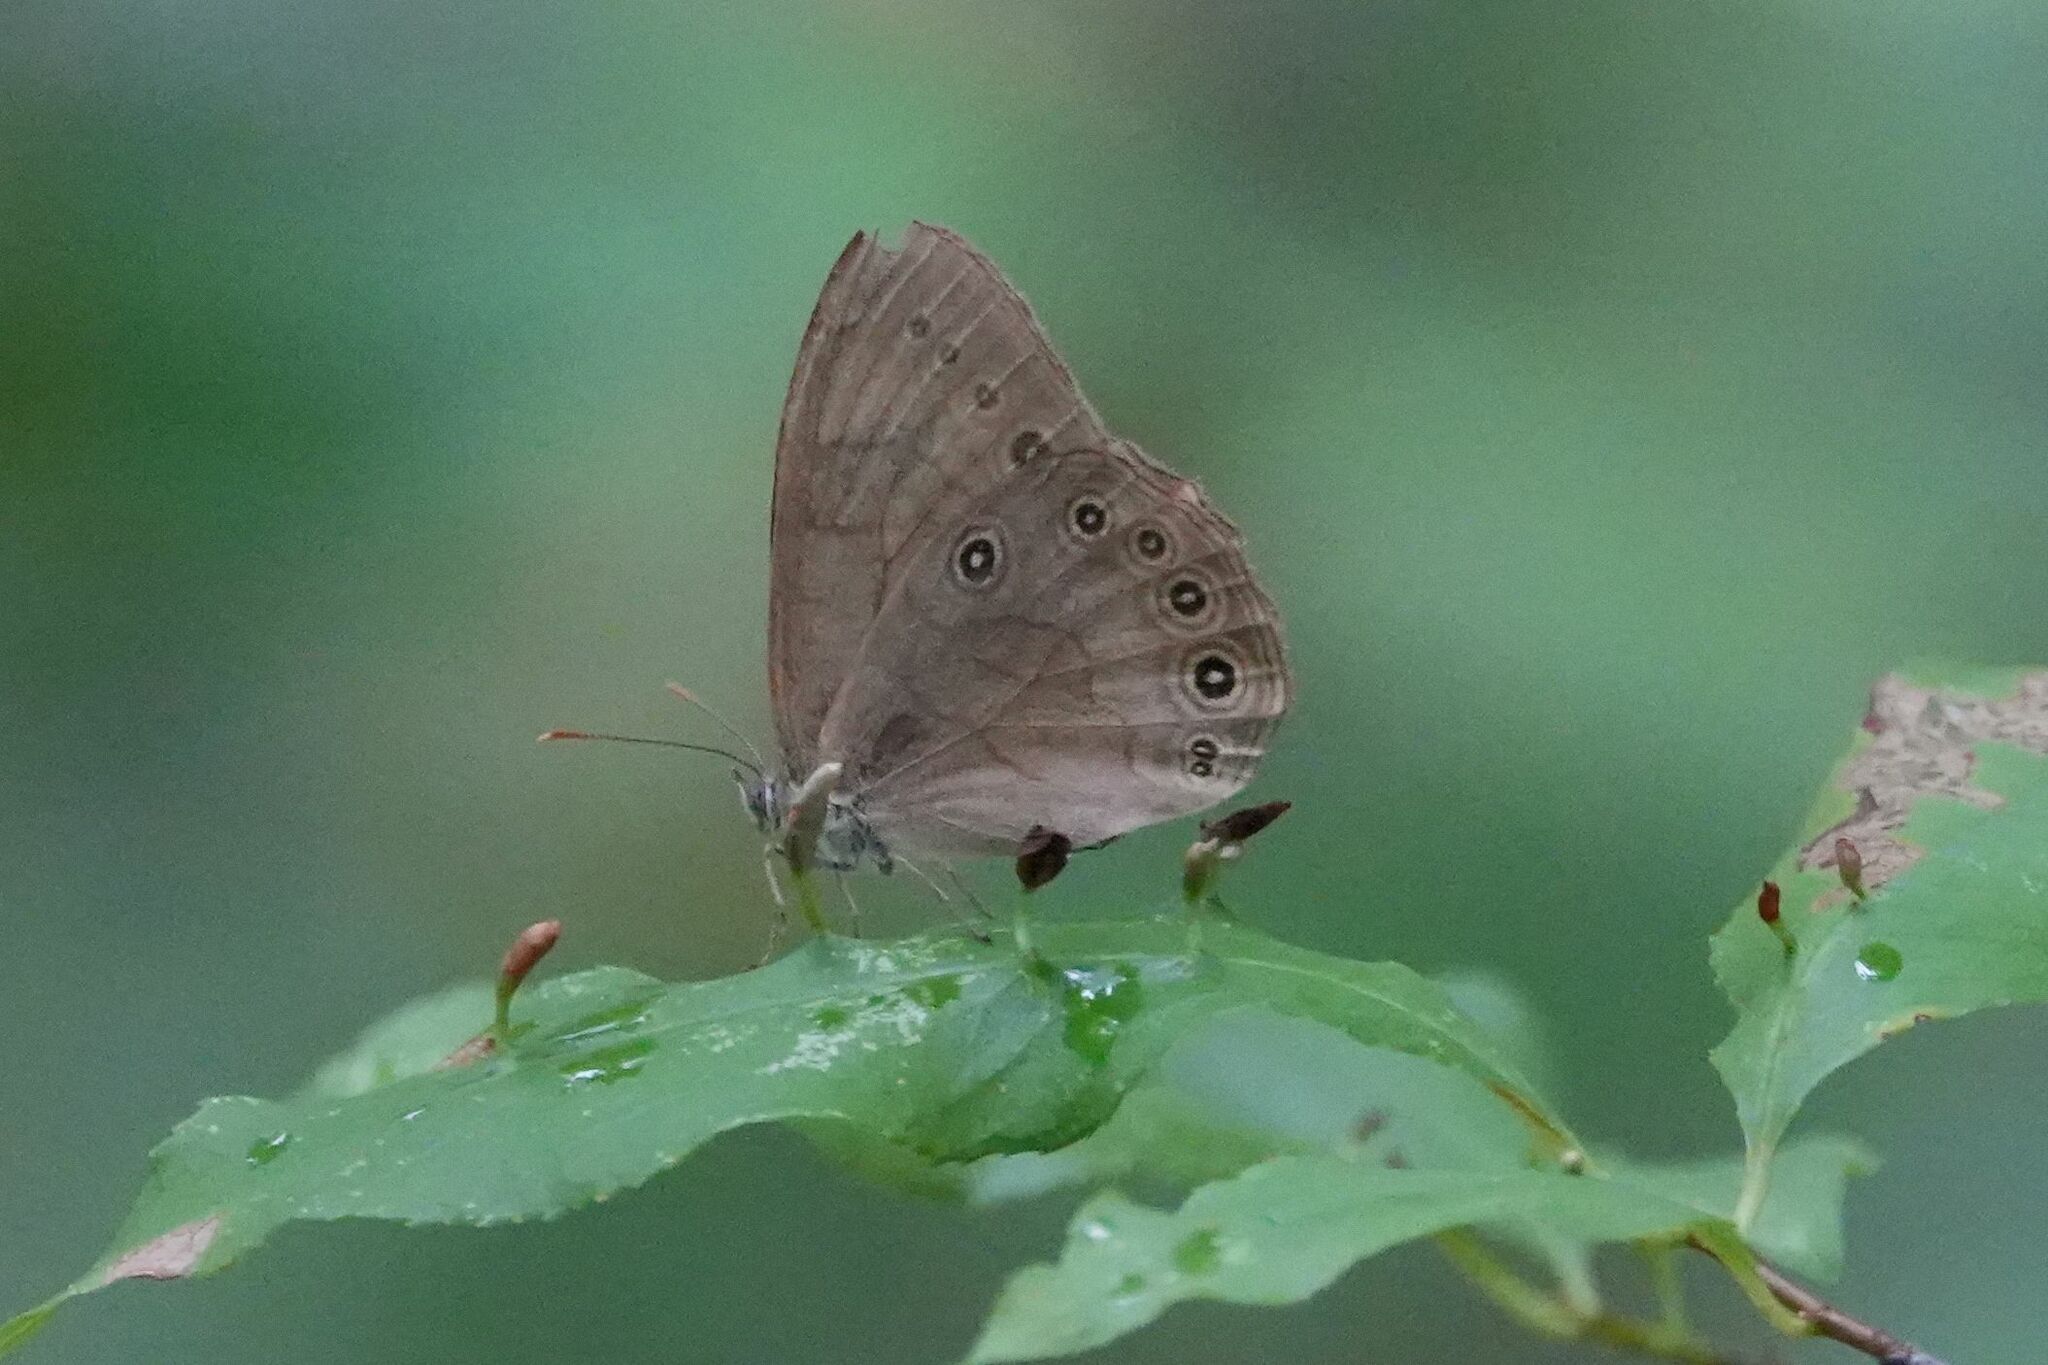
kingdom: Animalia
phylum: Arthropoda
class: Insecta
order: Lepidoptera
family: Nymphalidae
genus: Lethe
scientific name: Lethe eurydice
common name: Eyed brown
